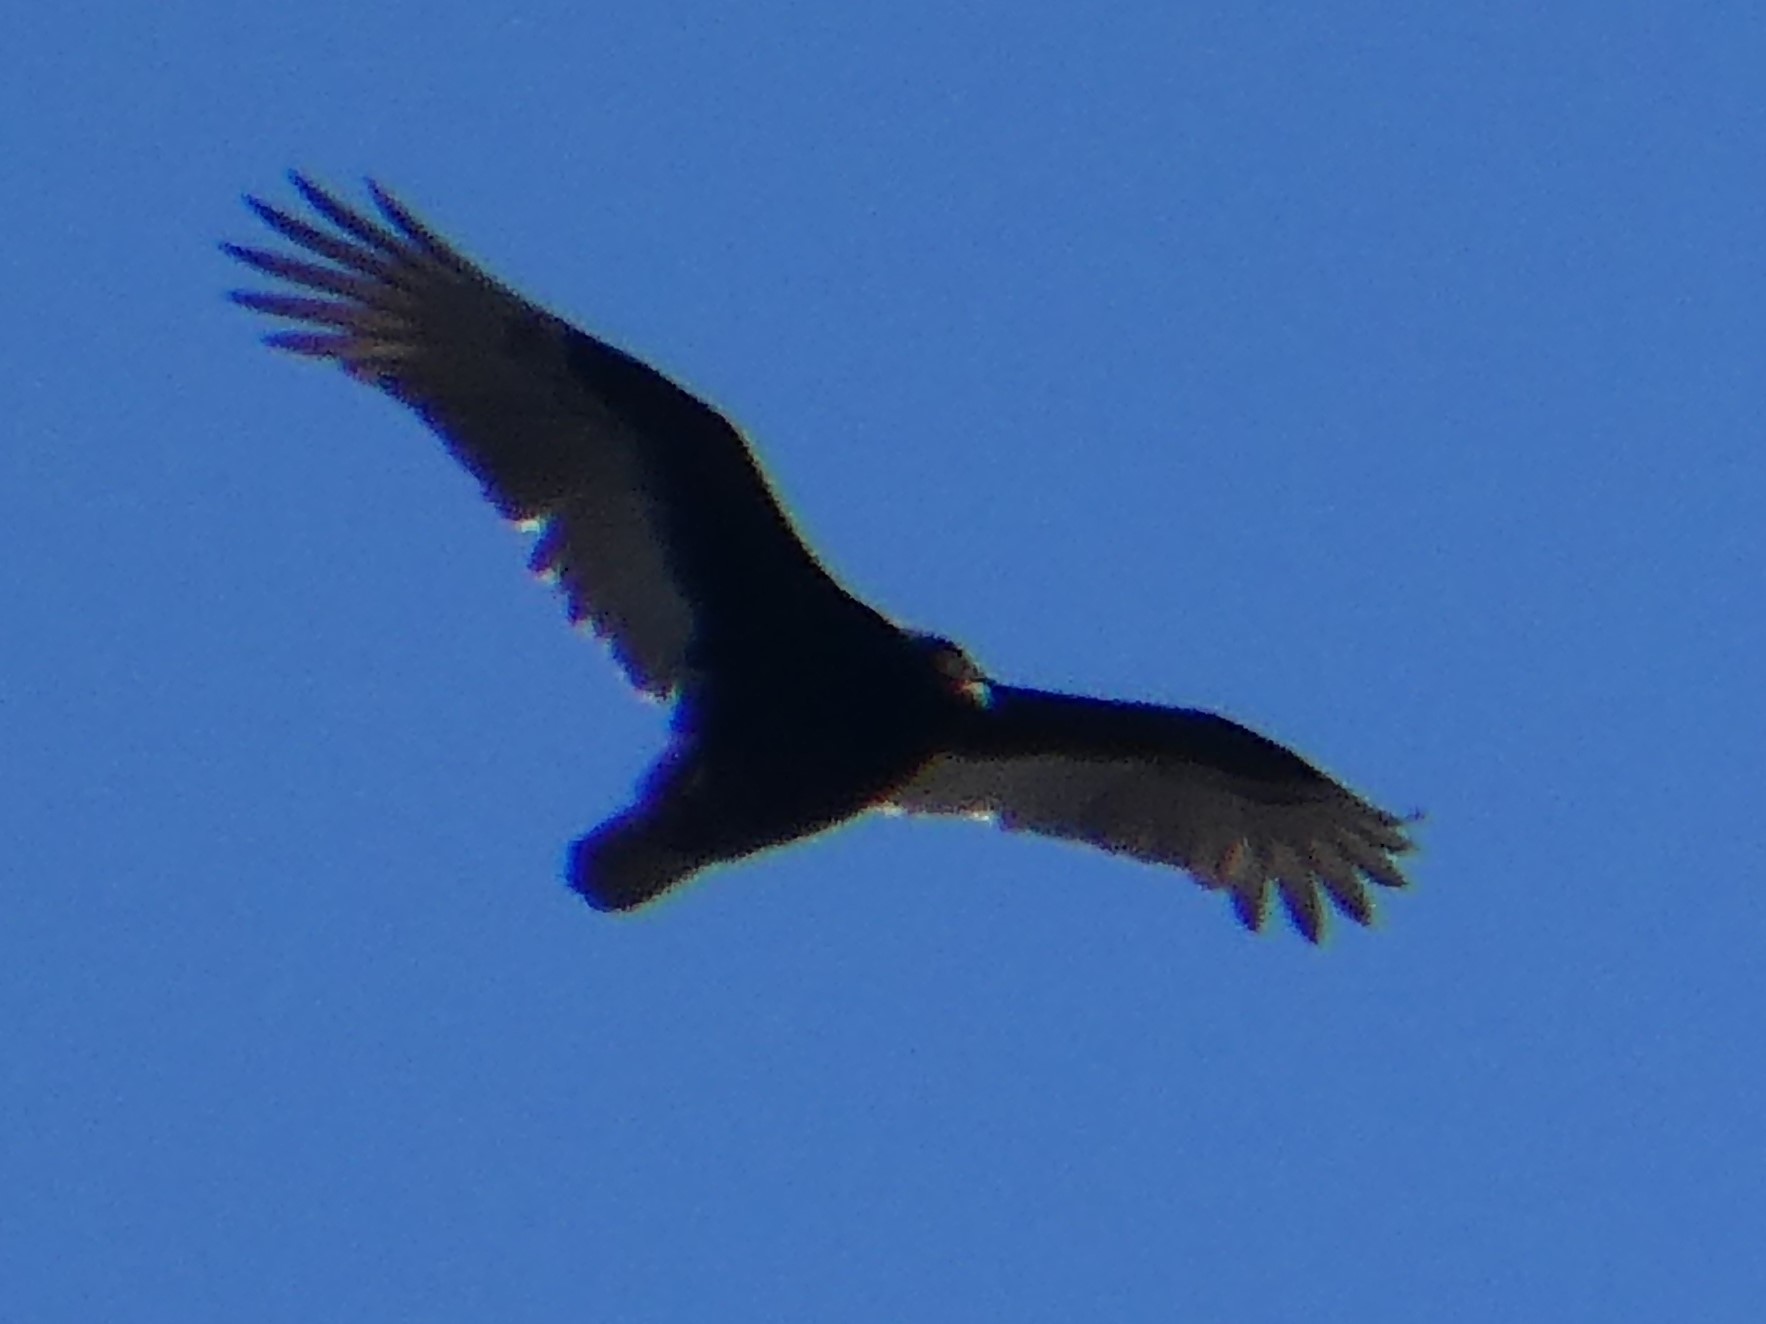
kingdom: Animalia
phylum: Chordata
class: Aves
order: Accipitriformes
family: Cathartidae
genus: Cathartes
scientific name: Cathartes aura
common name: Turkey vulture
